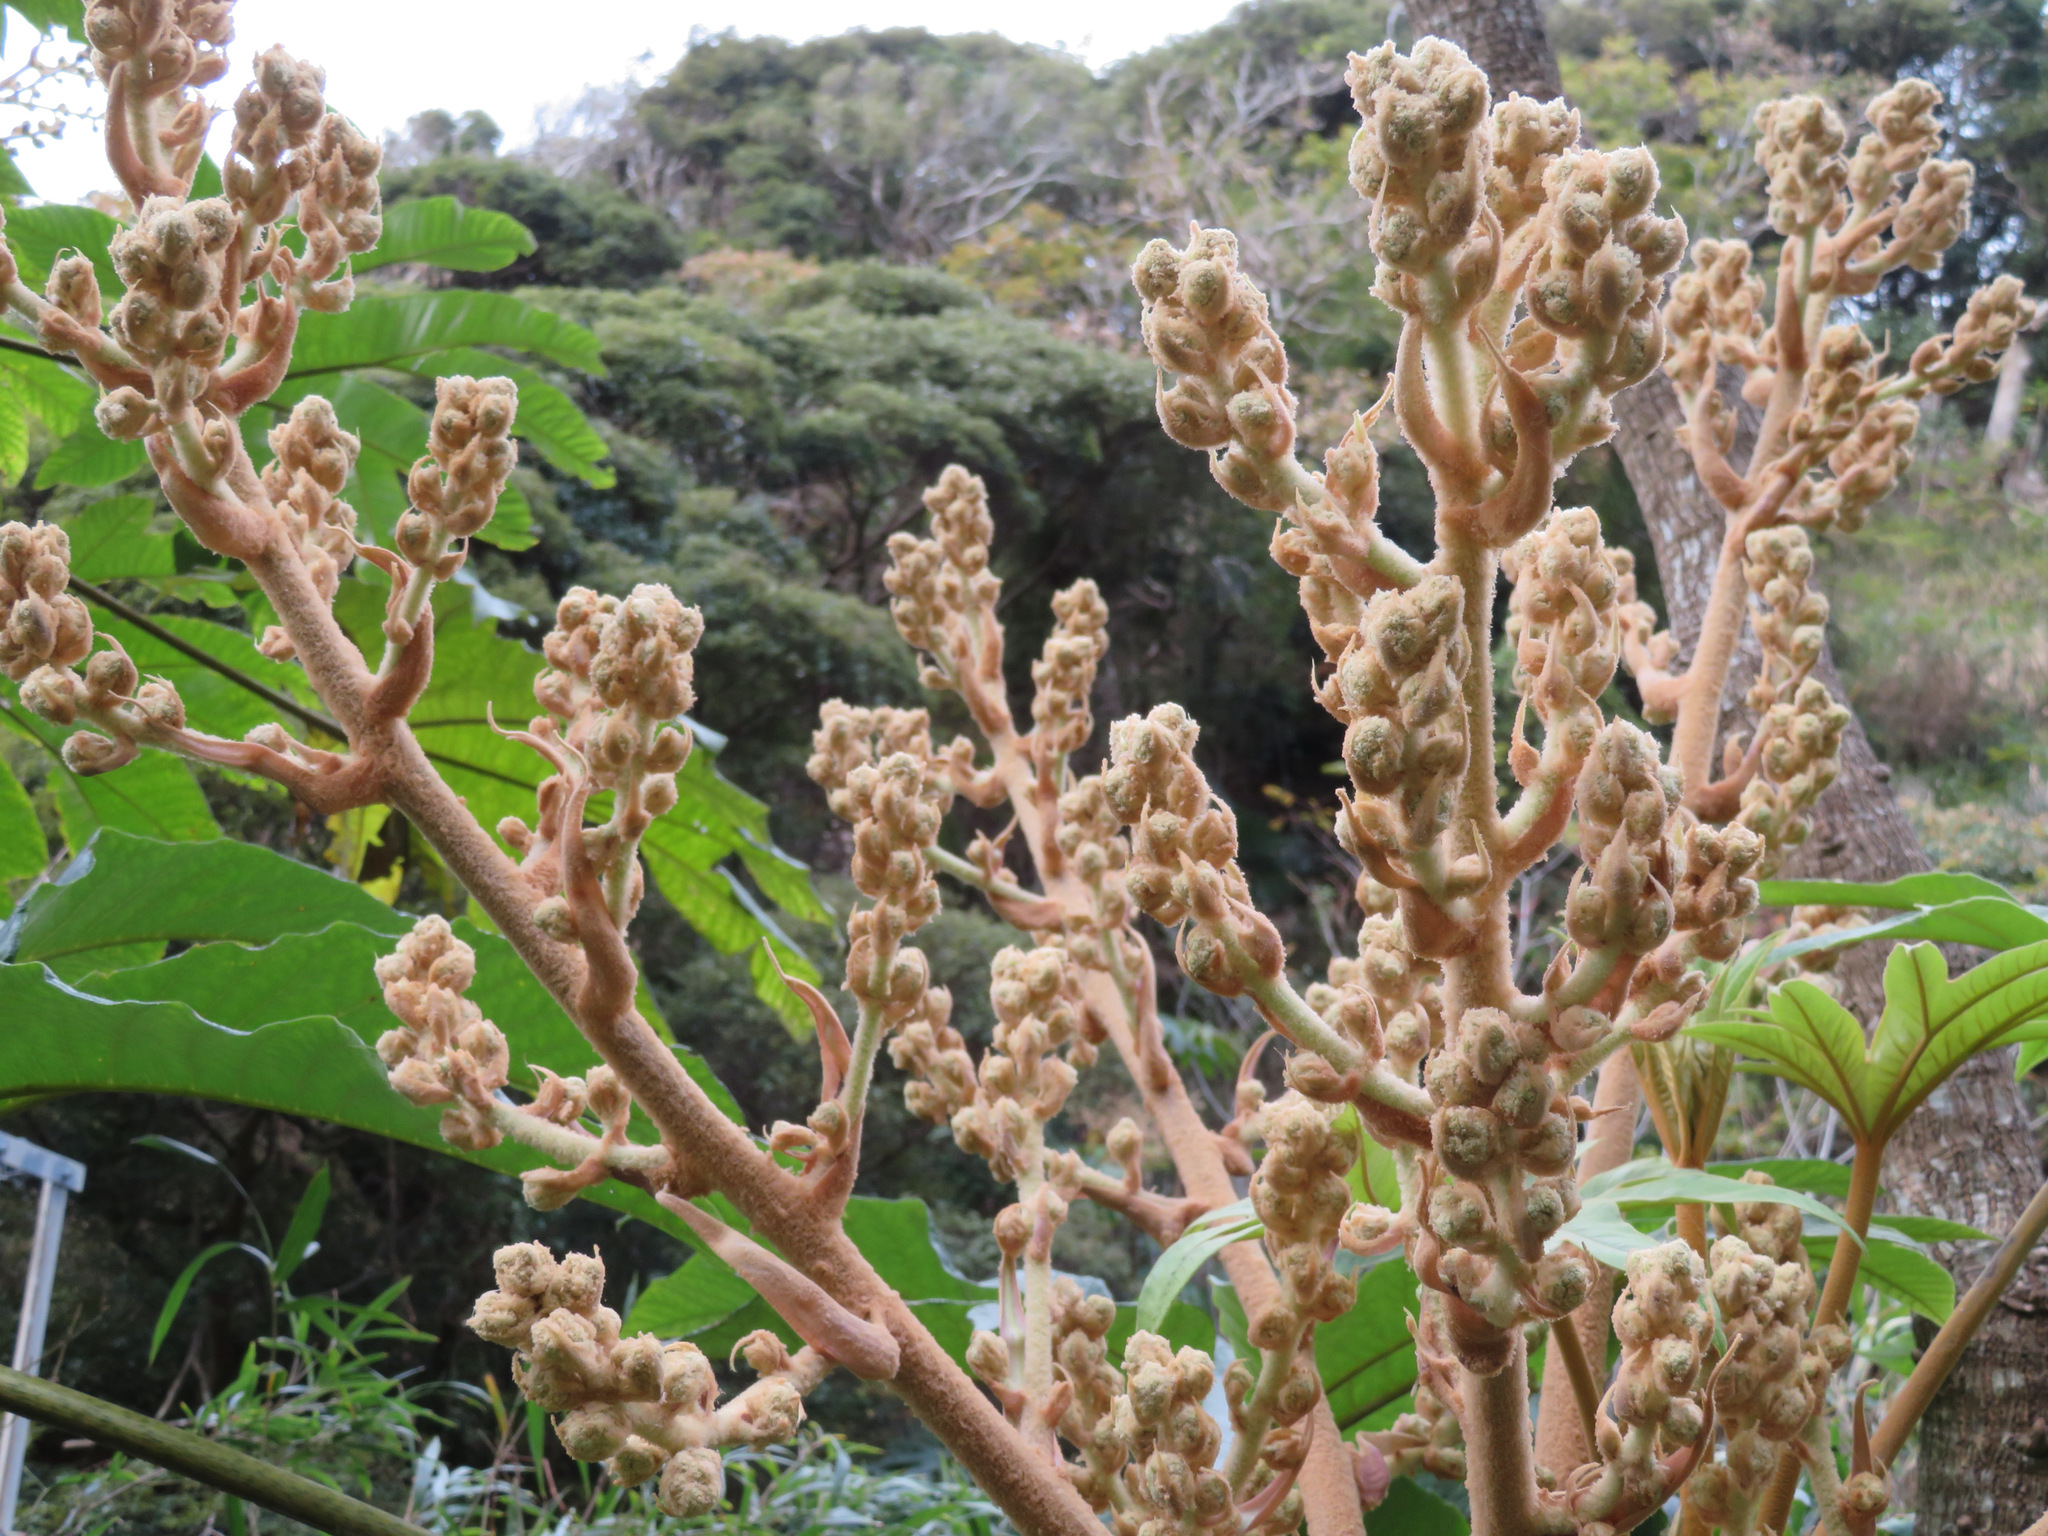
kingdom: Plantae
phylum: Tracheophyta
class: Magnoliopsida
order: Apiales
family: Araliaceae
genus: Tetrapanax
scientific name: Tetrapanax papyrifer
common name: Rice-paper plant
